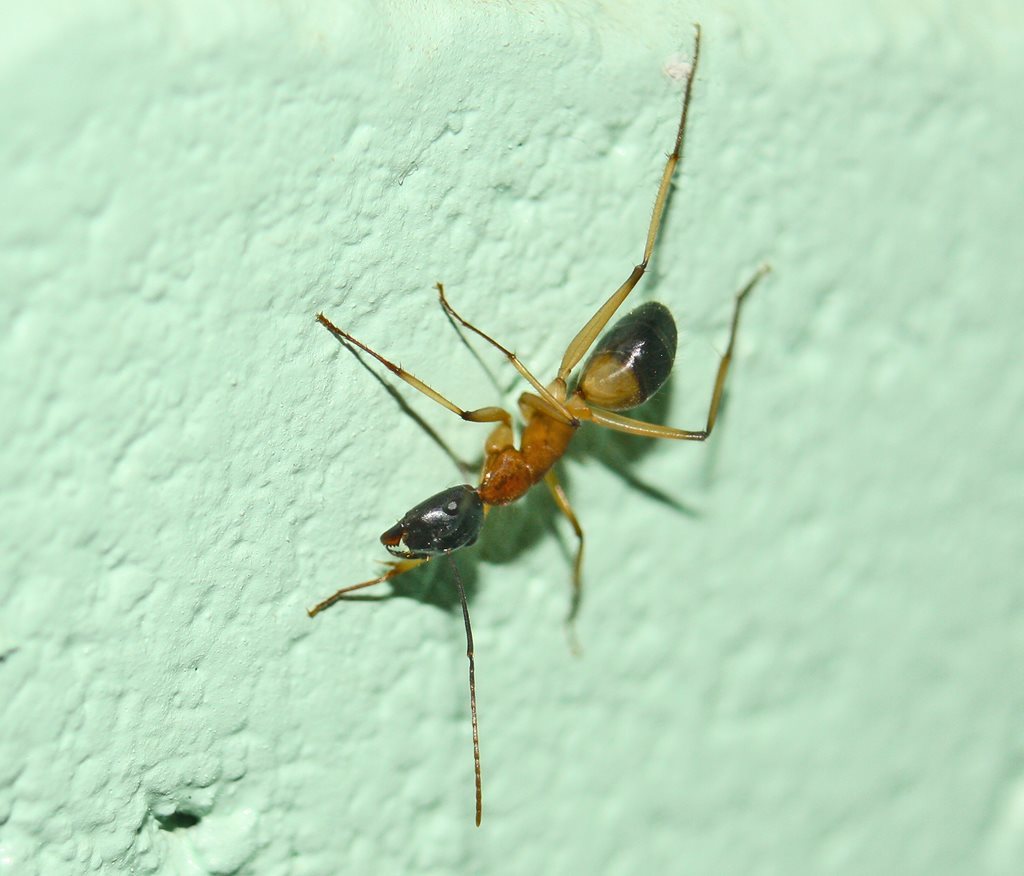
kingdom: Animalia
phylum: Arthropoda
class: Insecta
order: Hymenoptera
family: Formicidae
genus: Camponotus
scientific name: Camponotus consobrinus
